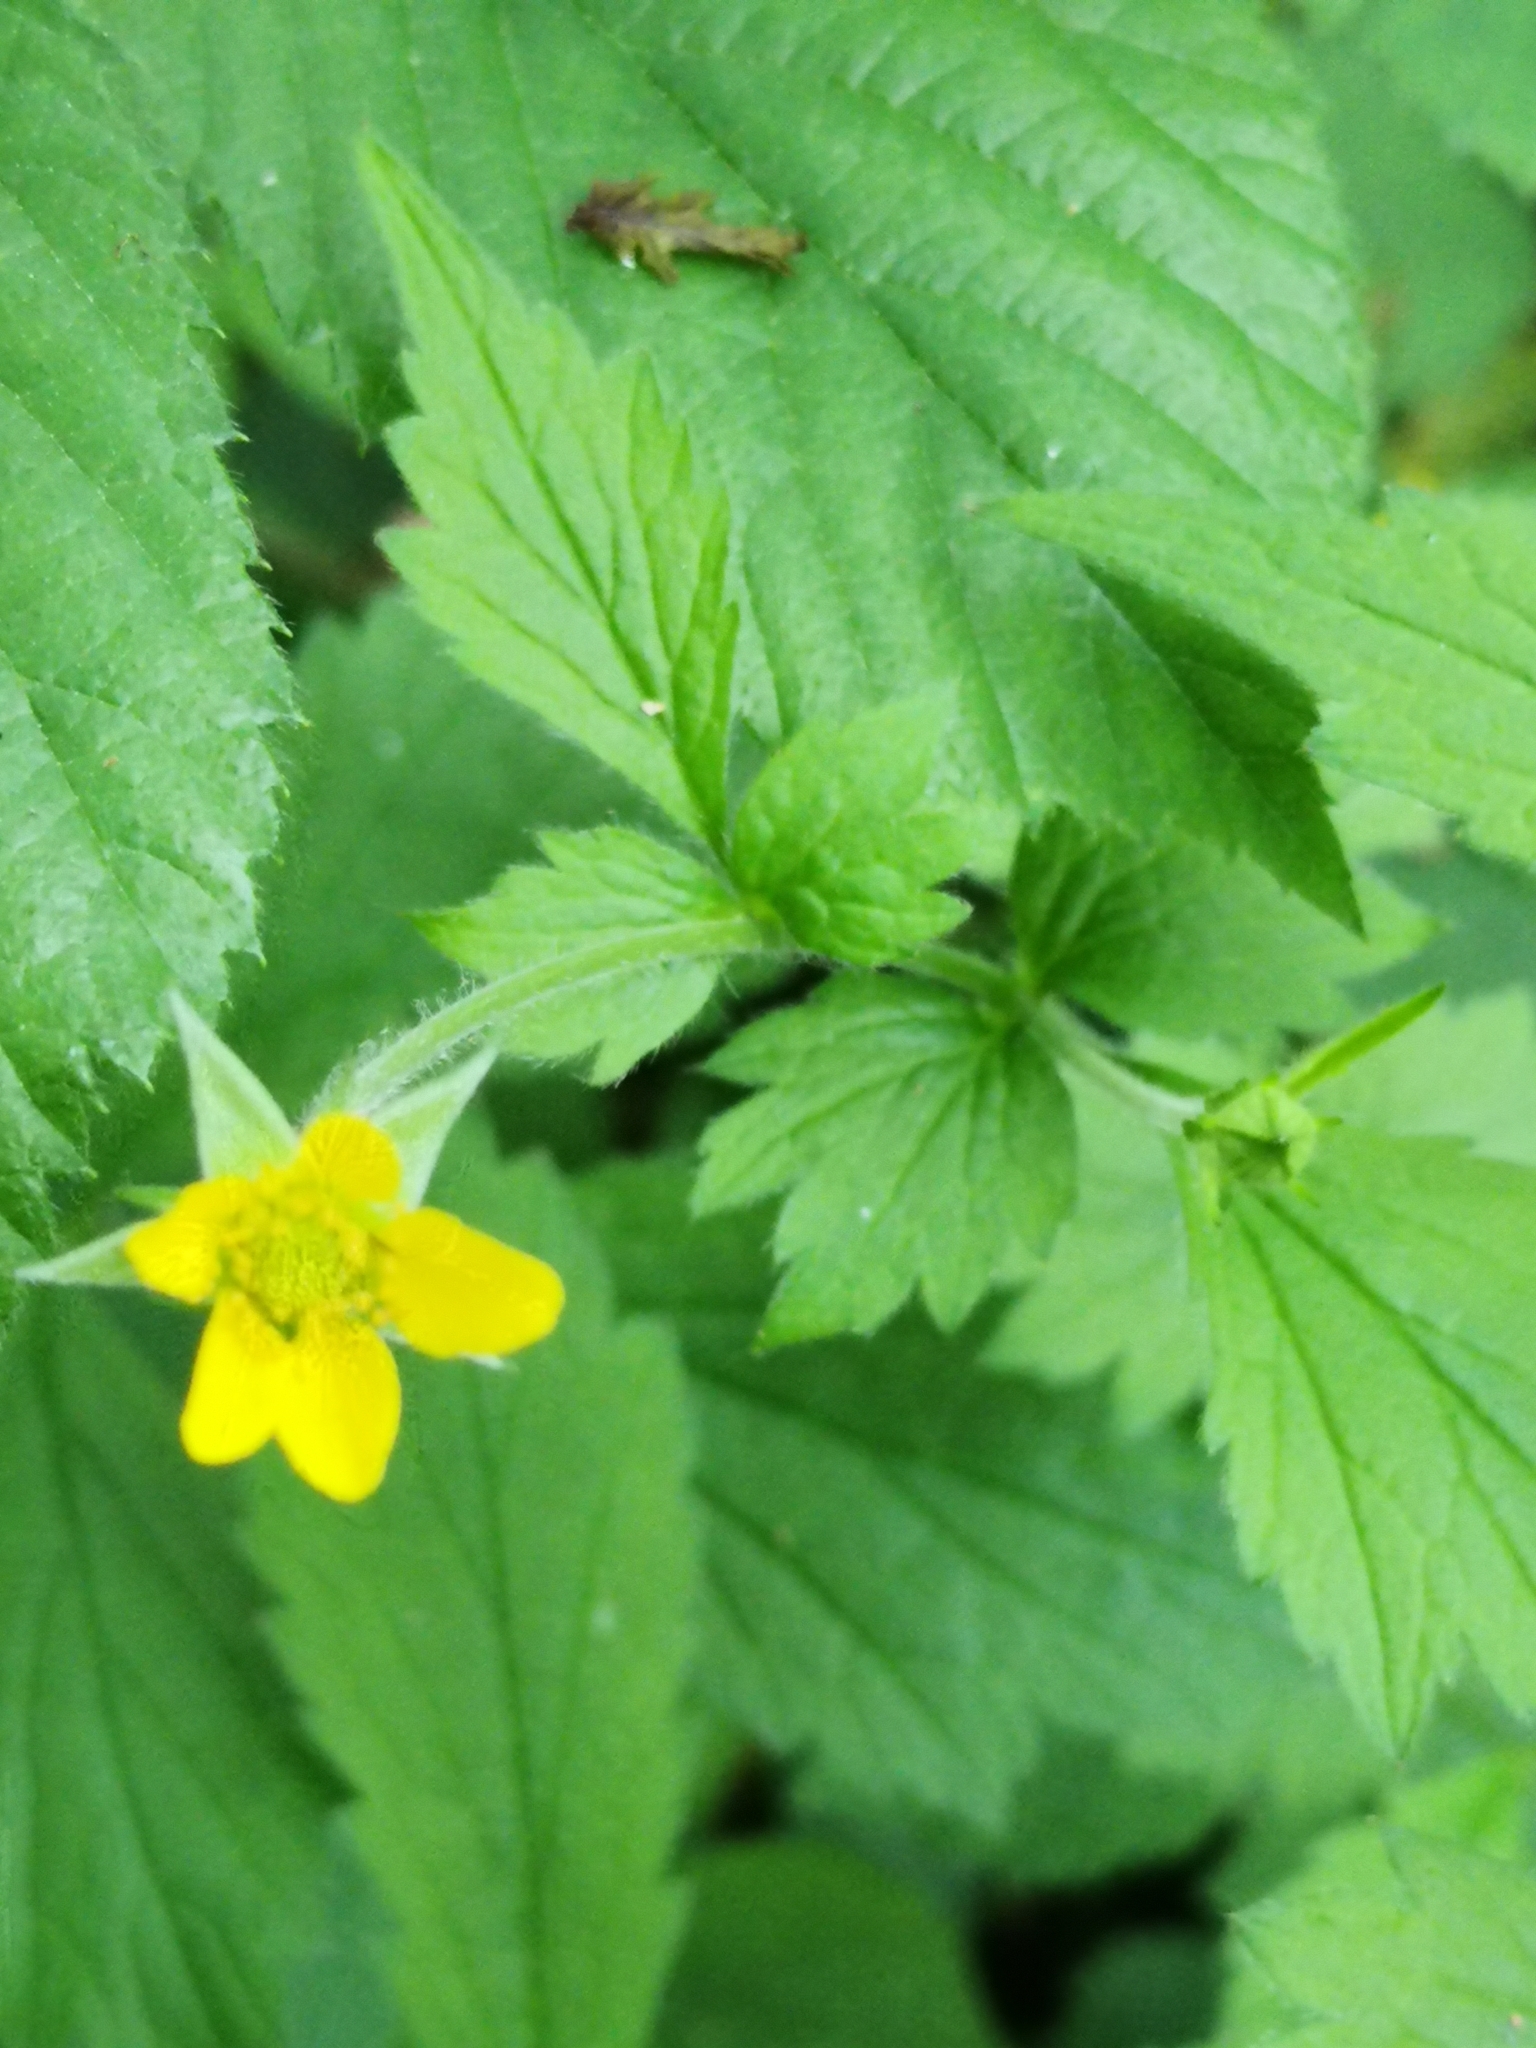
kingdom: Plantae
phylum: Tracheophyta
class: Magnoliopsida
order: Rosales
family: Rosaceae
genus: Geum
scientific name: Geum urbanum
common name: Wood avens
